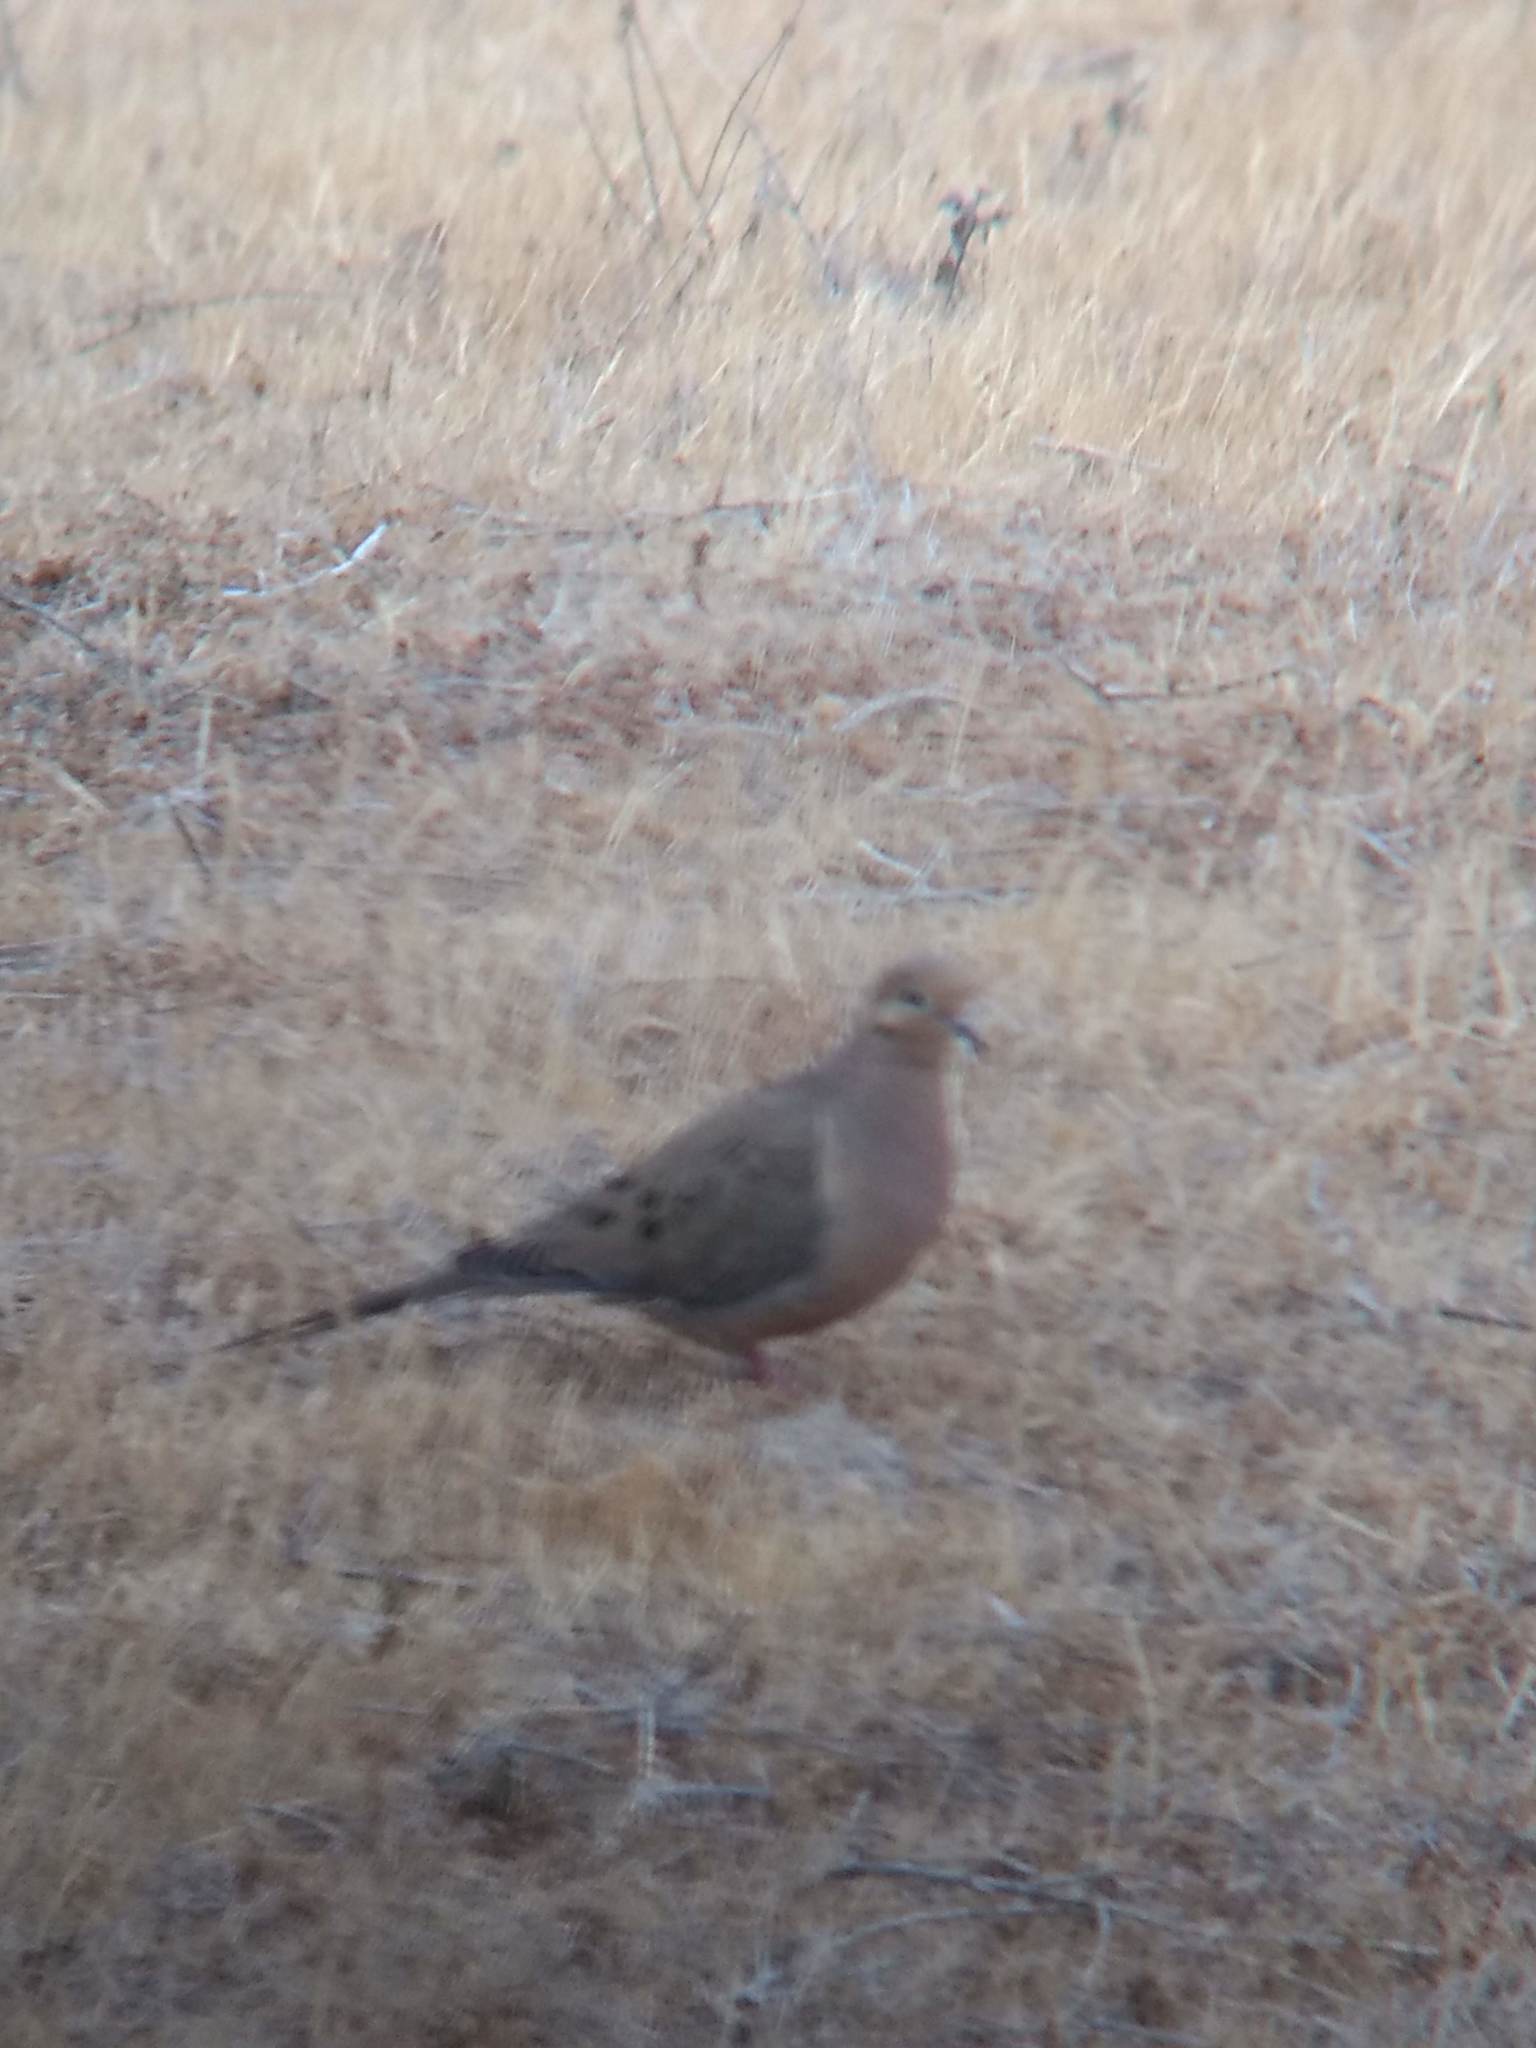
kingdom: Animalia
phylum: Chordata
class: Aves
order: Columbiformes
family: Columbidae
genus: Zenaida
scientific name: Zenaida macroura
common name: Mourning dove
